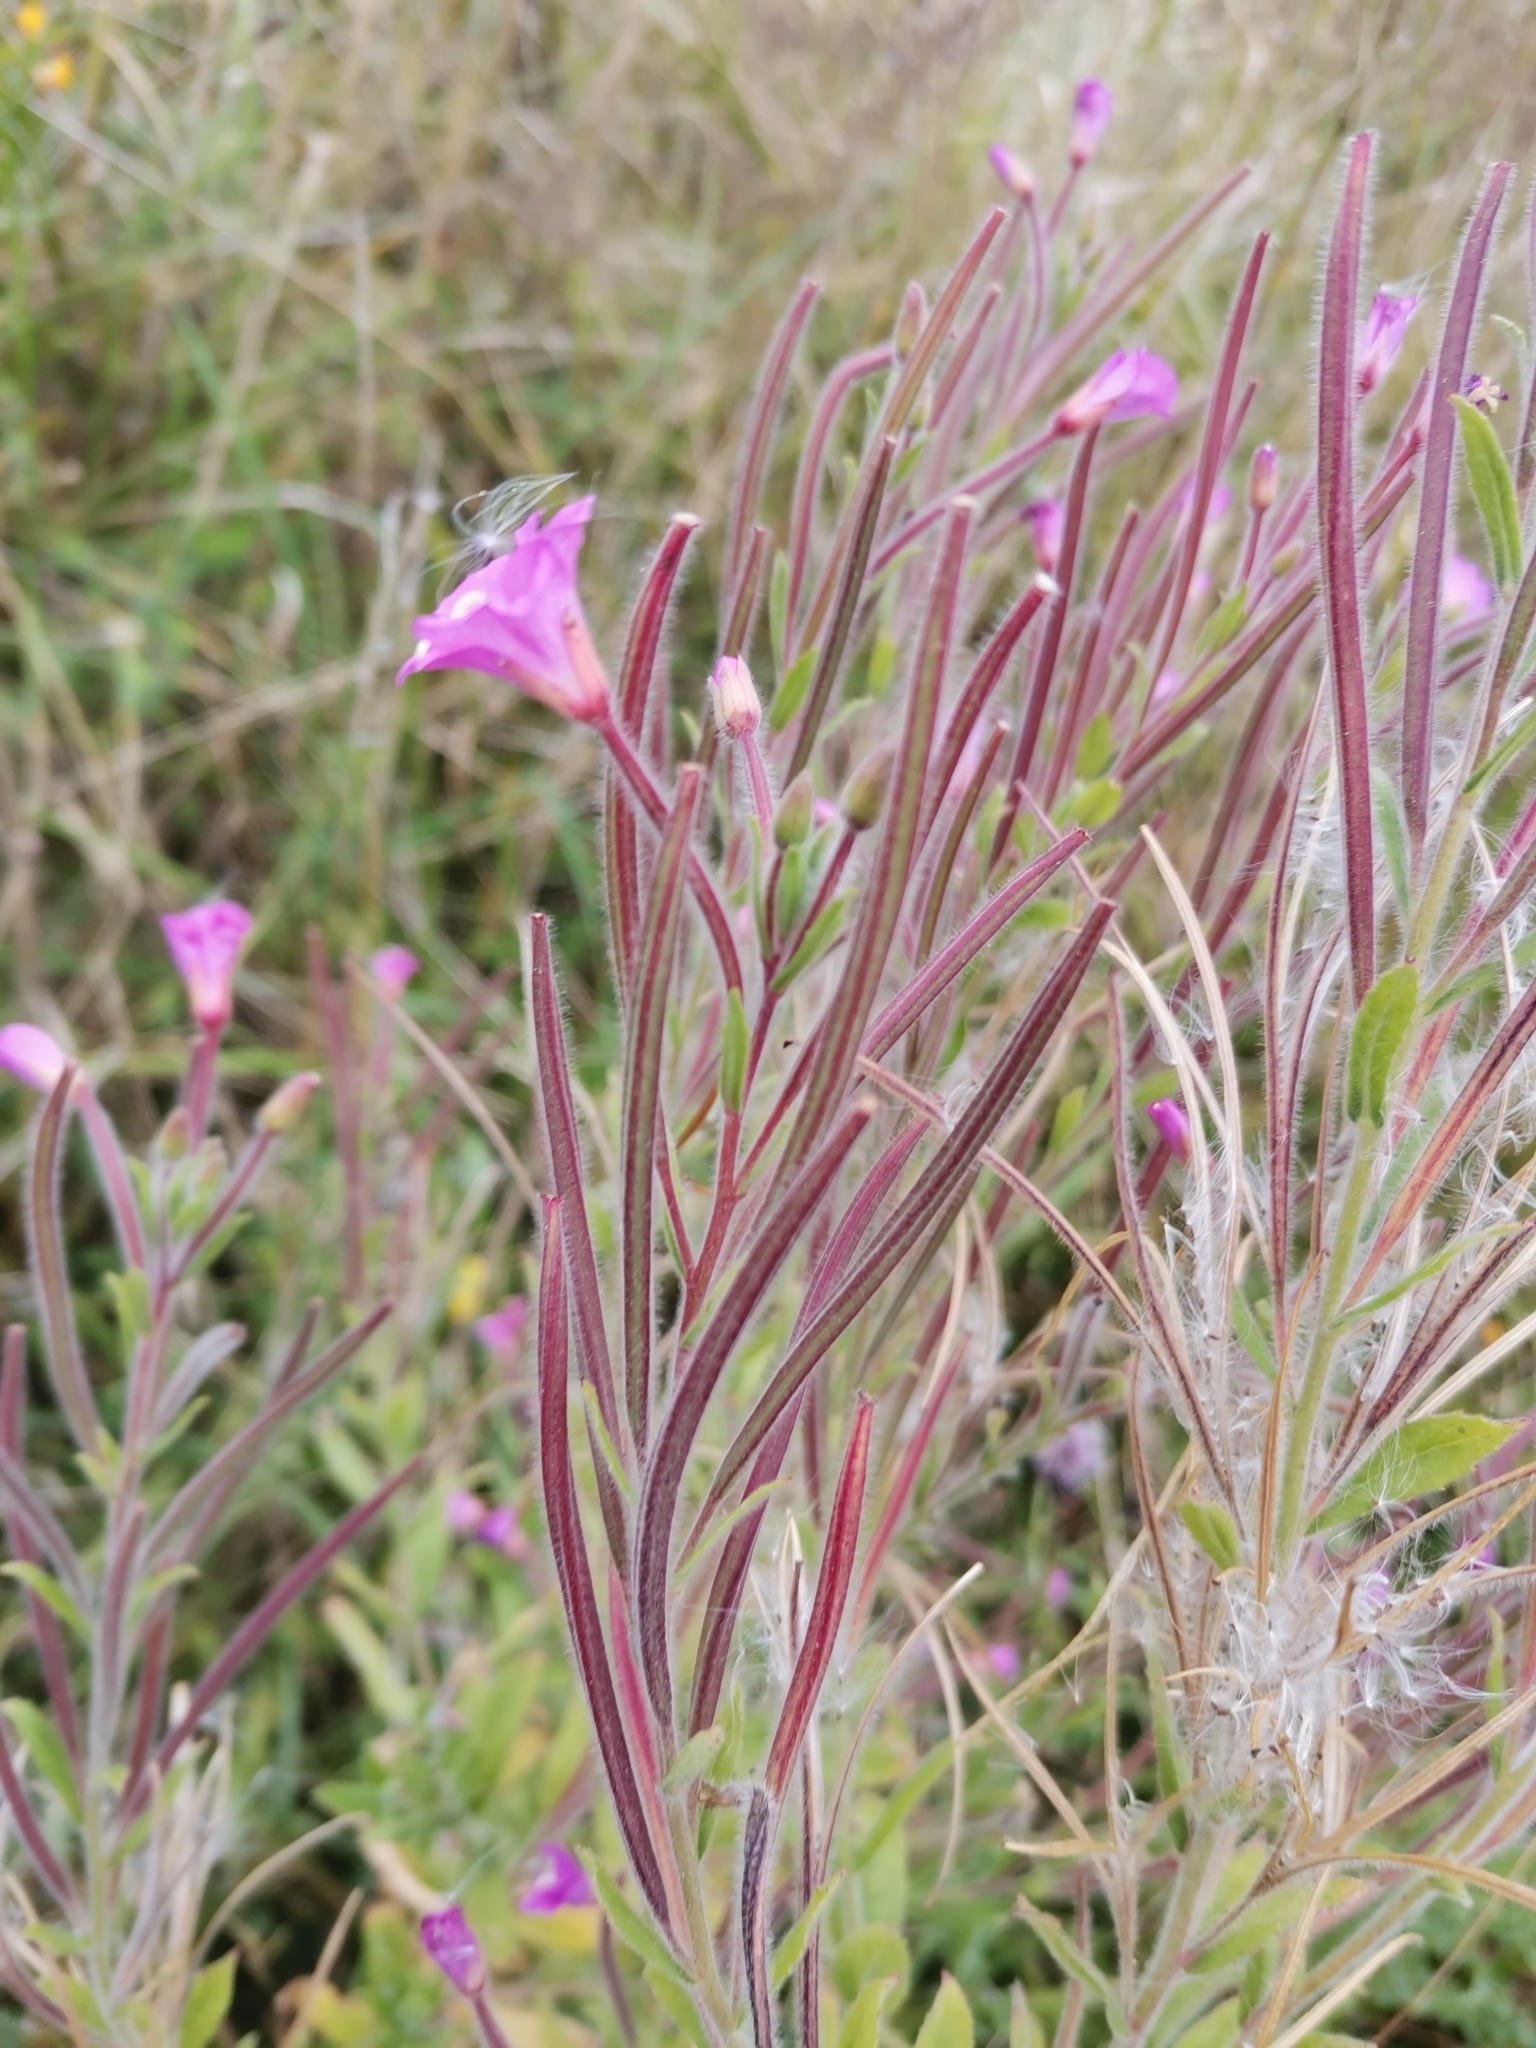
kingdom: Plantae
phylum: Tracheophyta
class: Magnoliopsida
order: Myrtales
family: Onagraceae
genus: Epilobium
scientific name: Epilobium hirsutum
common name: Great willowherb
